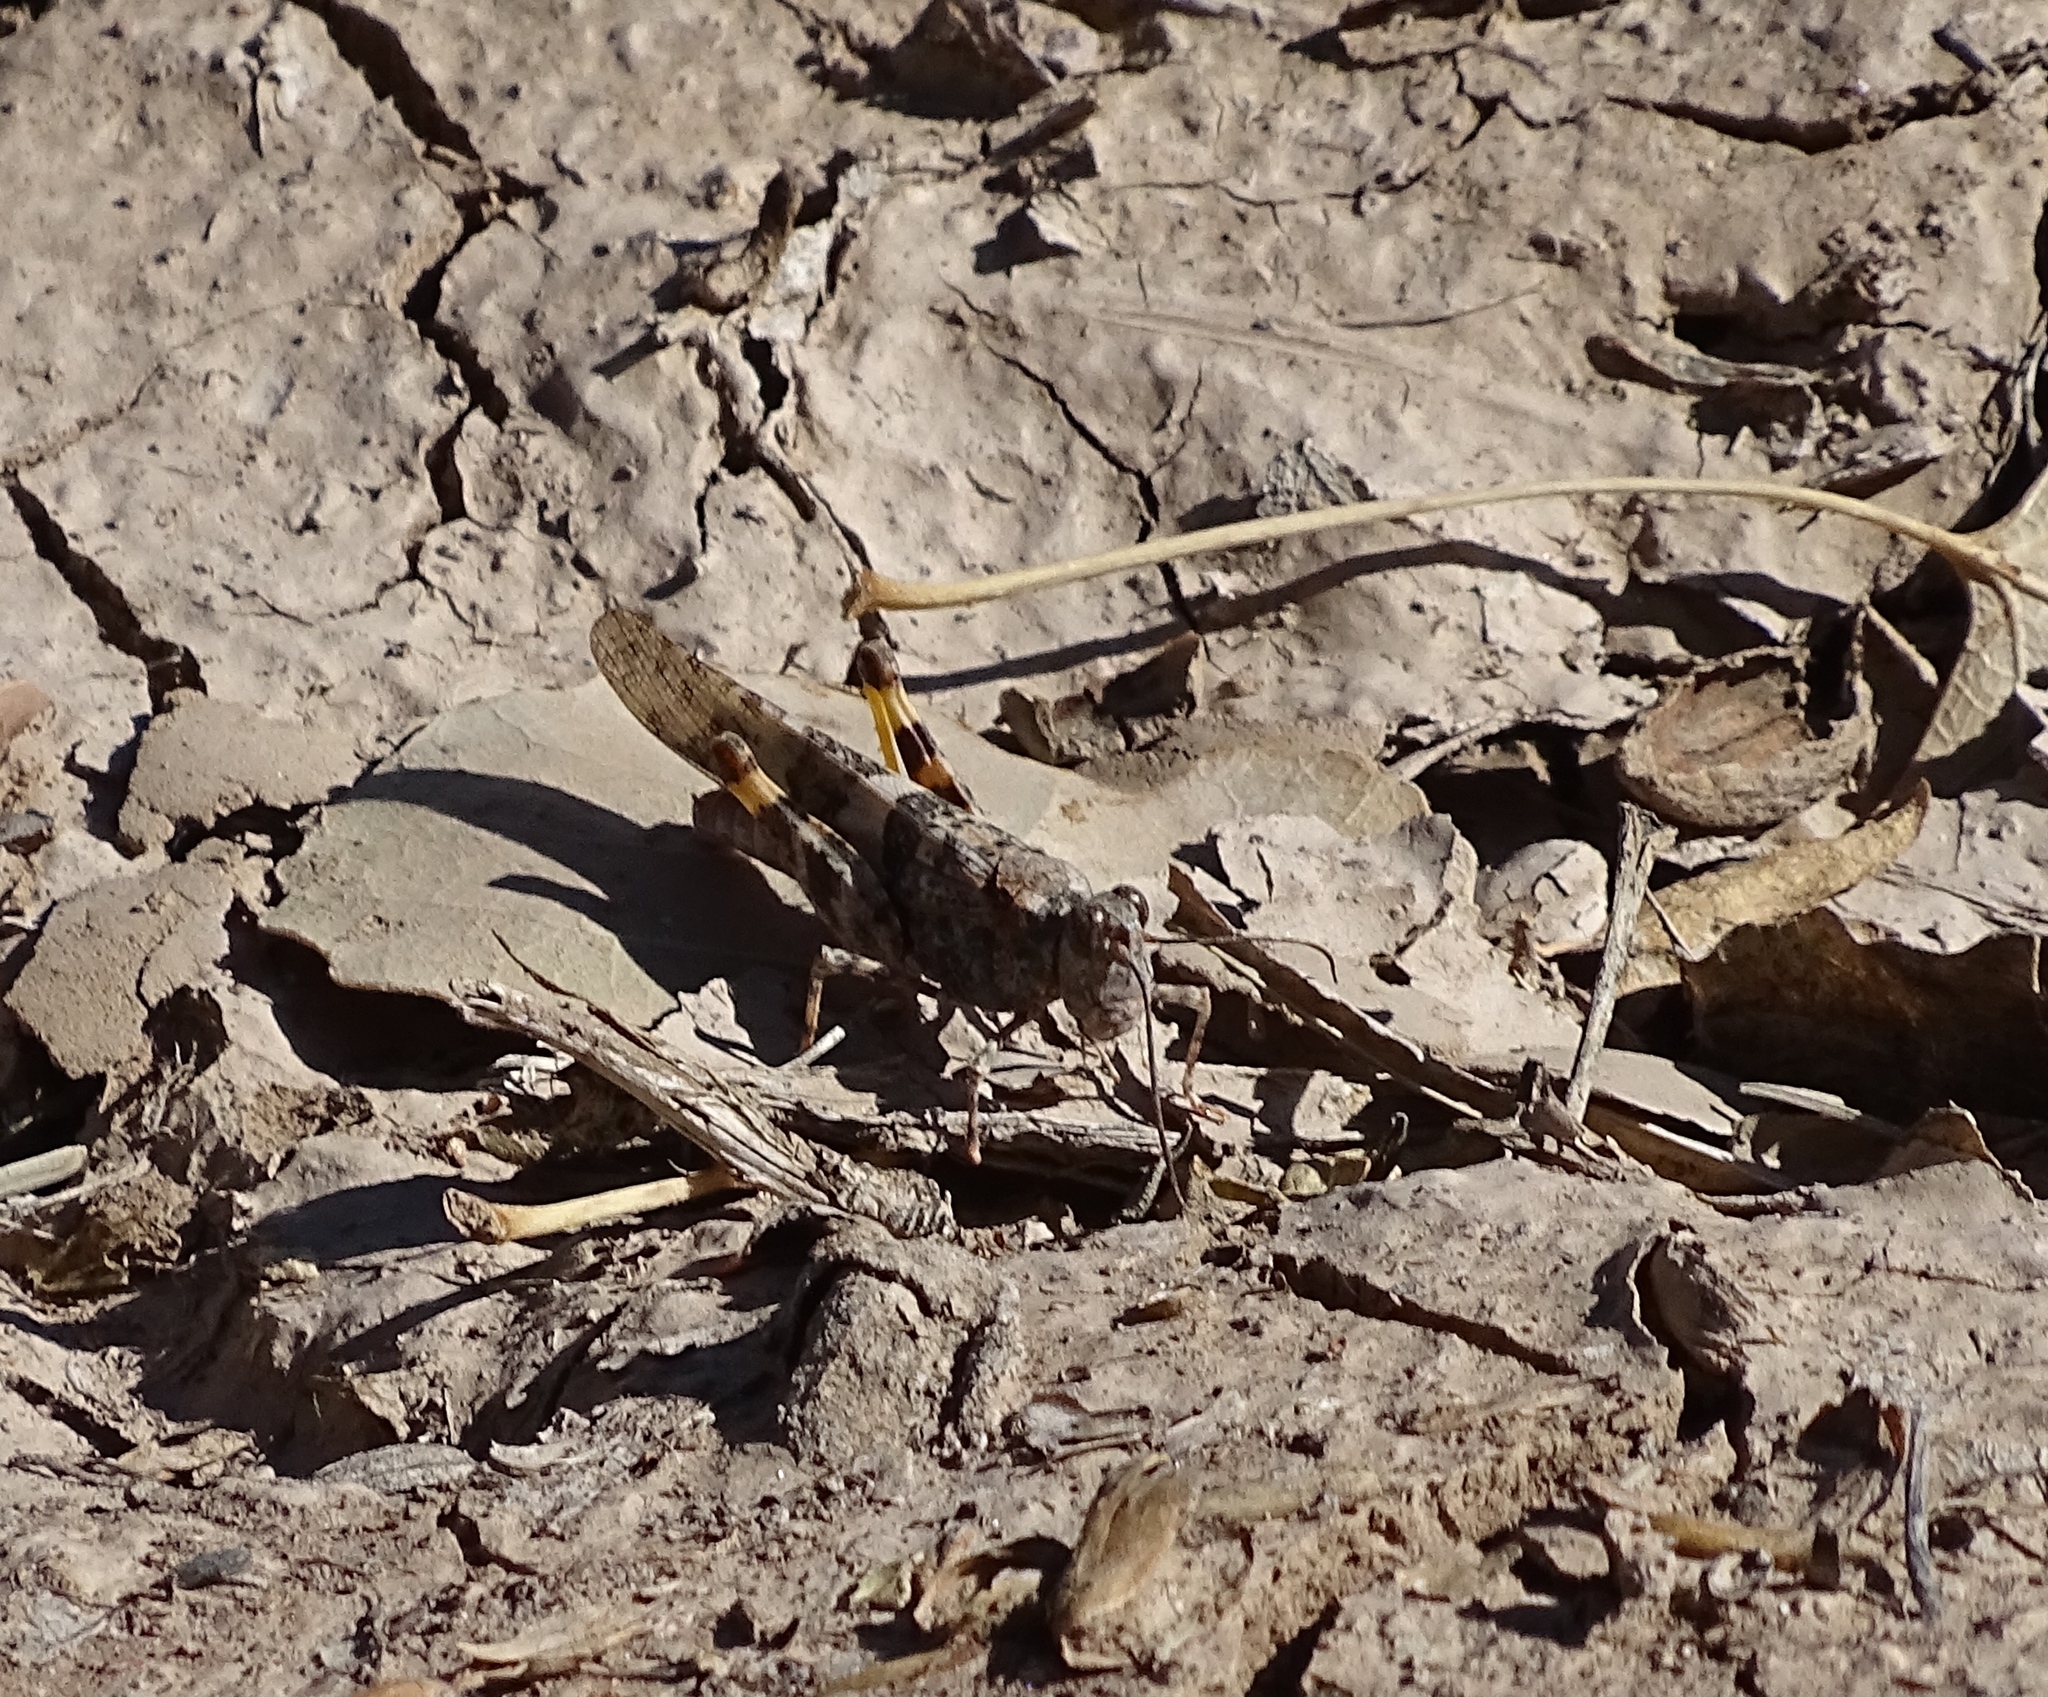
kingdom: Animalia
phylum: Arthropoda
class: Insecta
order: Orthoptera
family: Acrididae
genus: Trimerotropis
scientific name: Trimerotropis pallidipennis
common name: Pallid-winged grasshopper
